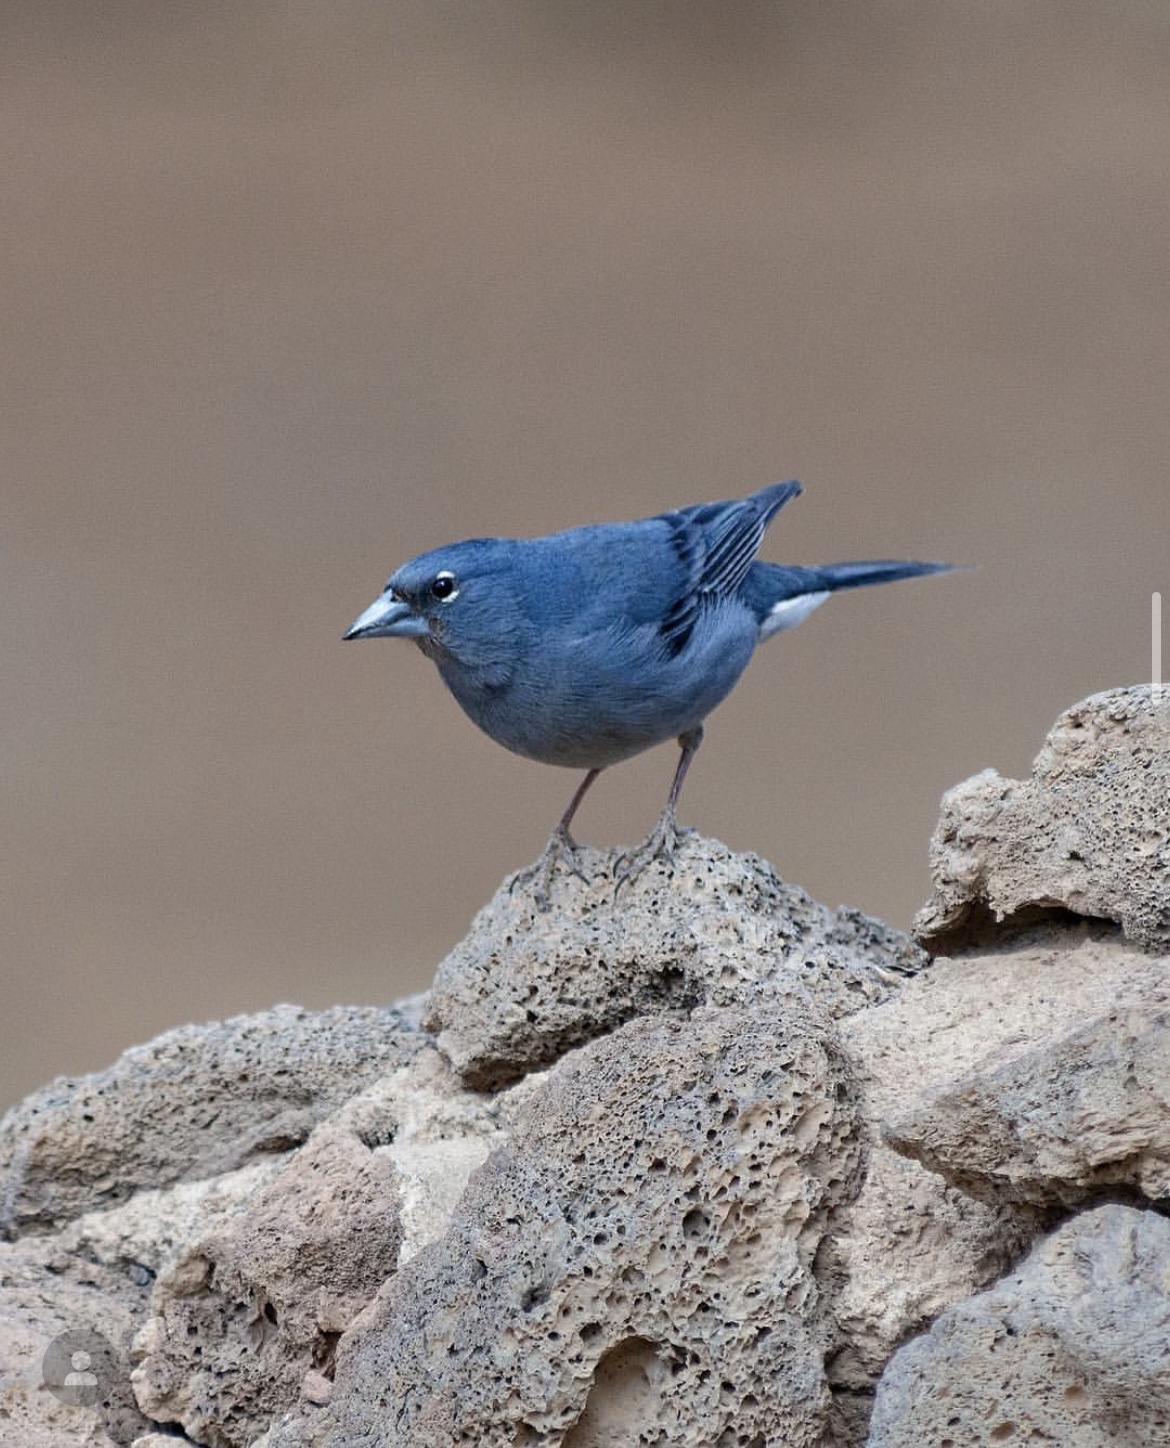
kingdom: Animalia
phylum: Chordata
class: Aves
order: Passeriformes
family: Fringillidae
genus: Fringilla
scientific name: Fringilla teydea
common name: Blue chaffinch
